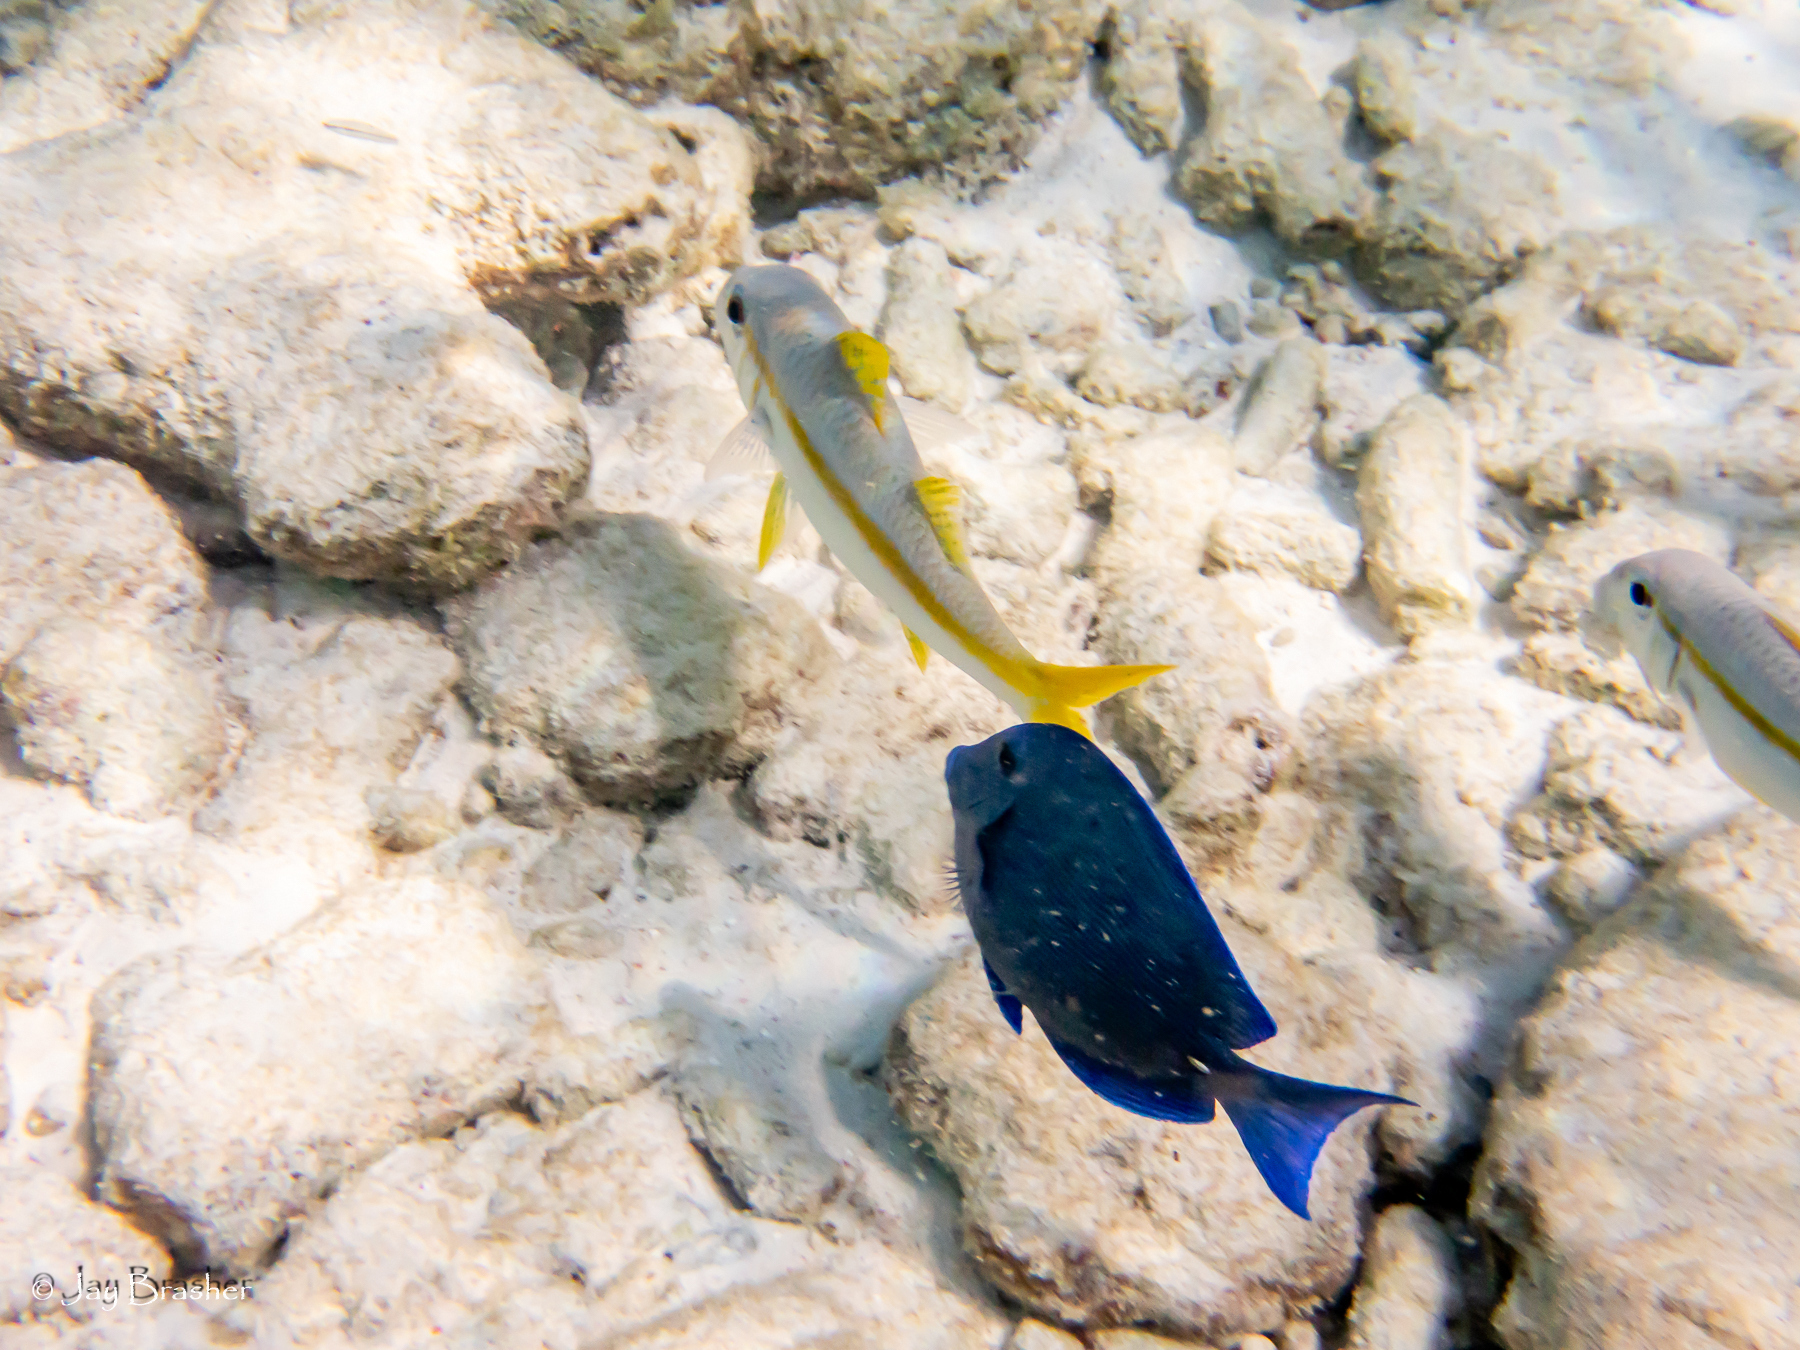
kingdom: Animalia
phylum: Chordata
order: Perciformes
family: Acanthuridae
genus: Acanthurus
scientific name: Acanthurus coeruleus
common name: Blue tang
